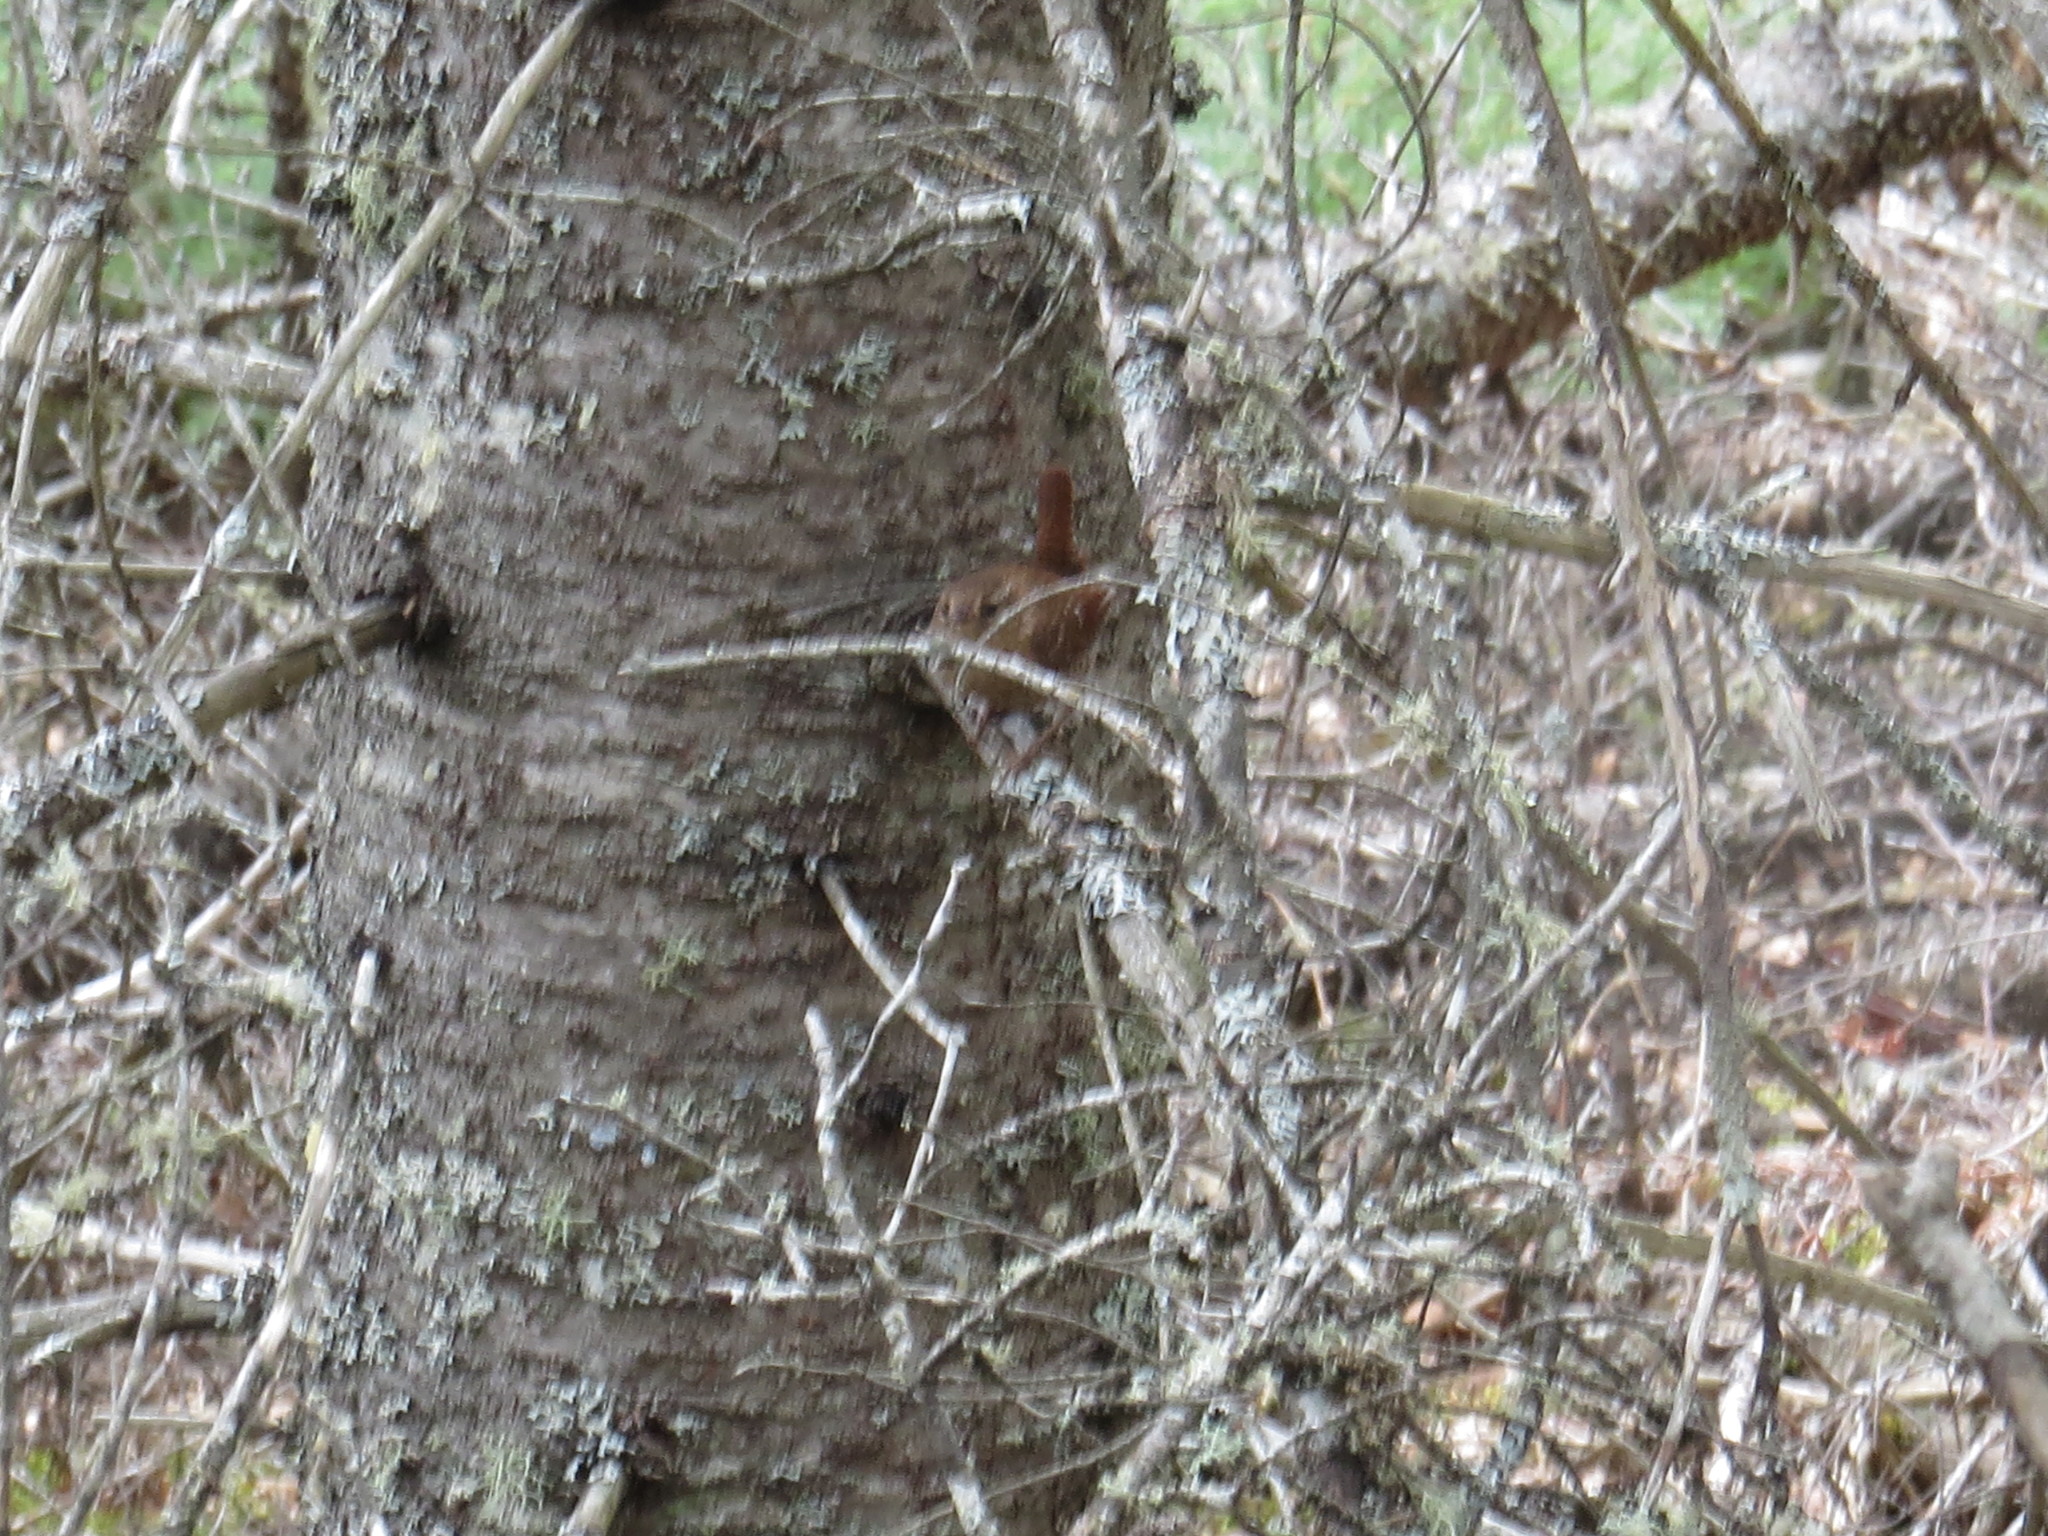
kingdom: Animalia
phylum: Chordata
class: Aves
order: Passeriformes
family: Troglodytidae
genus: Troglodytes
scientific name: Troglodytes hiemalis
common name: Winter wren
